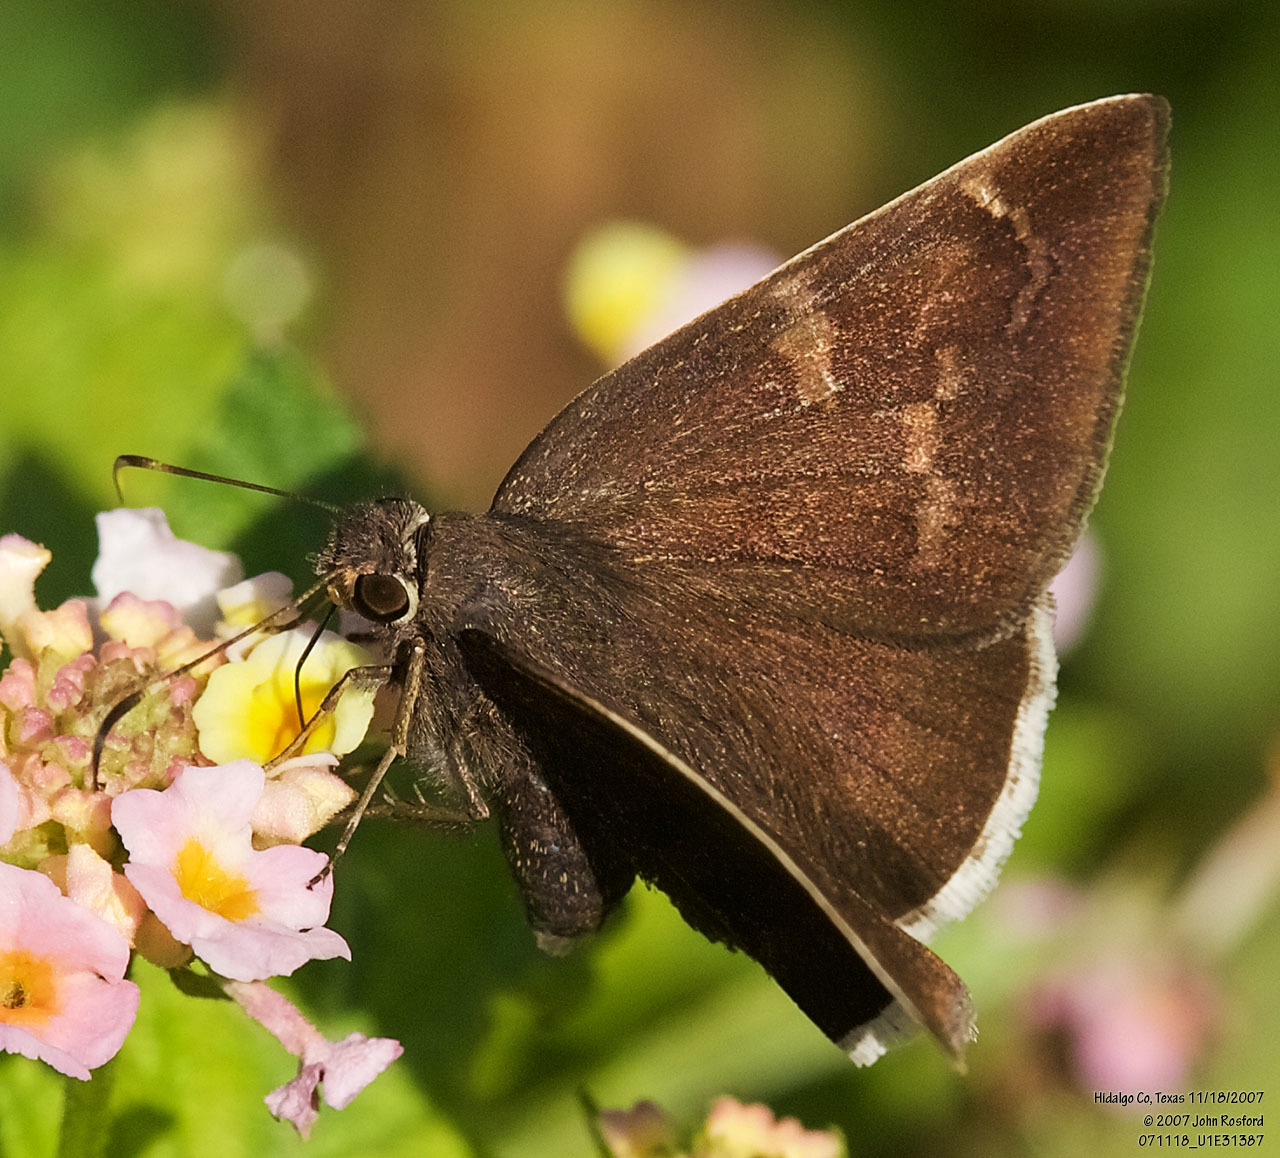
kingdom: Animalia
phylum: Arthropoda
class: Insecta
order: Lepidoptera
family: Hesperiidae
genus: Achalarus
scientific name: Achalarus Murgaria albociliatus
